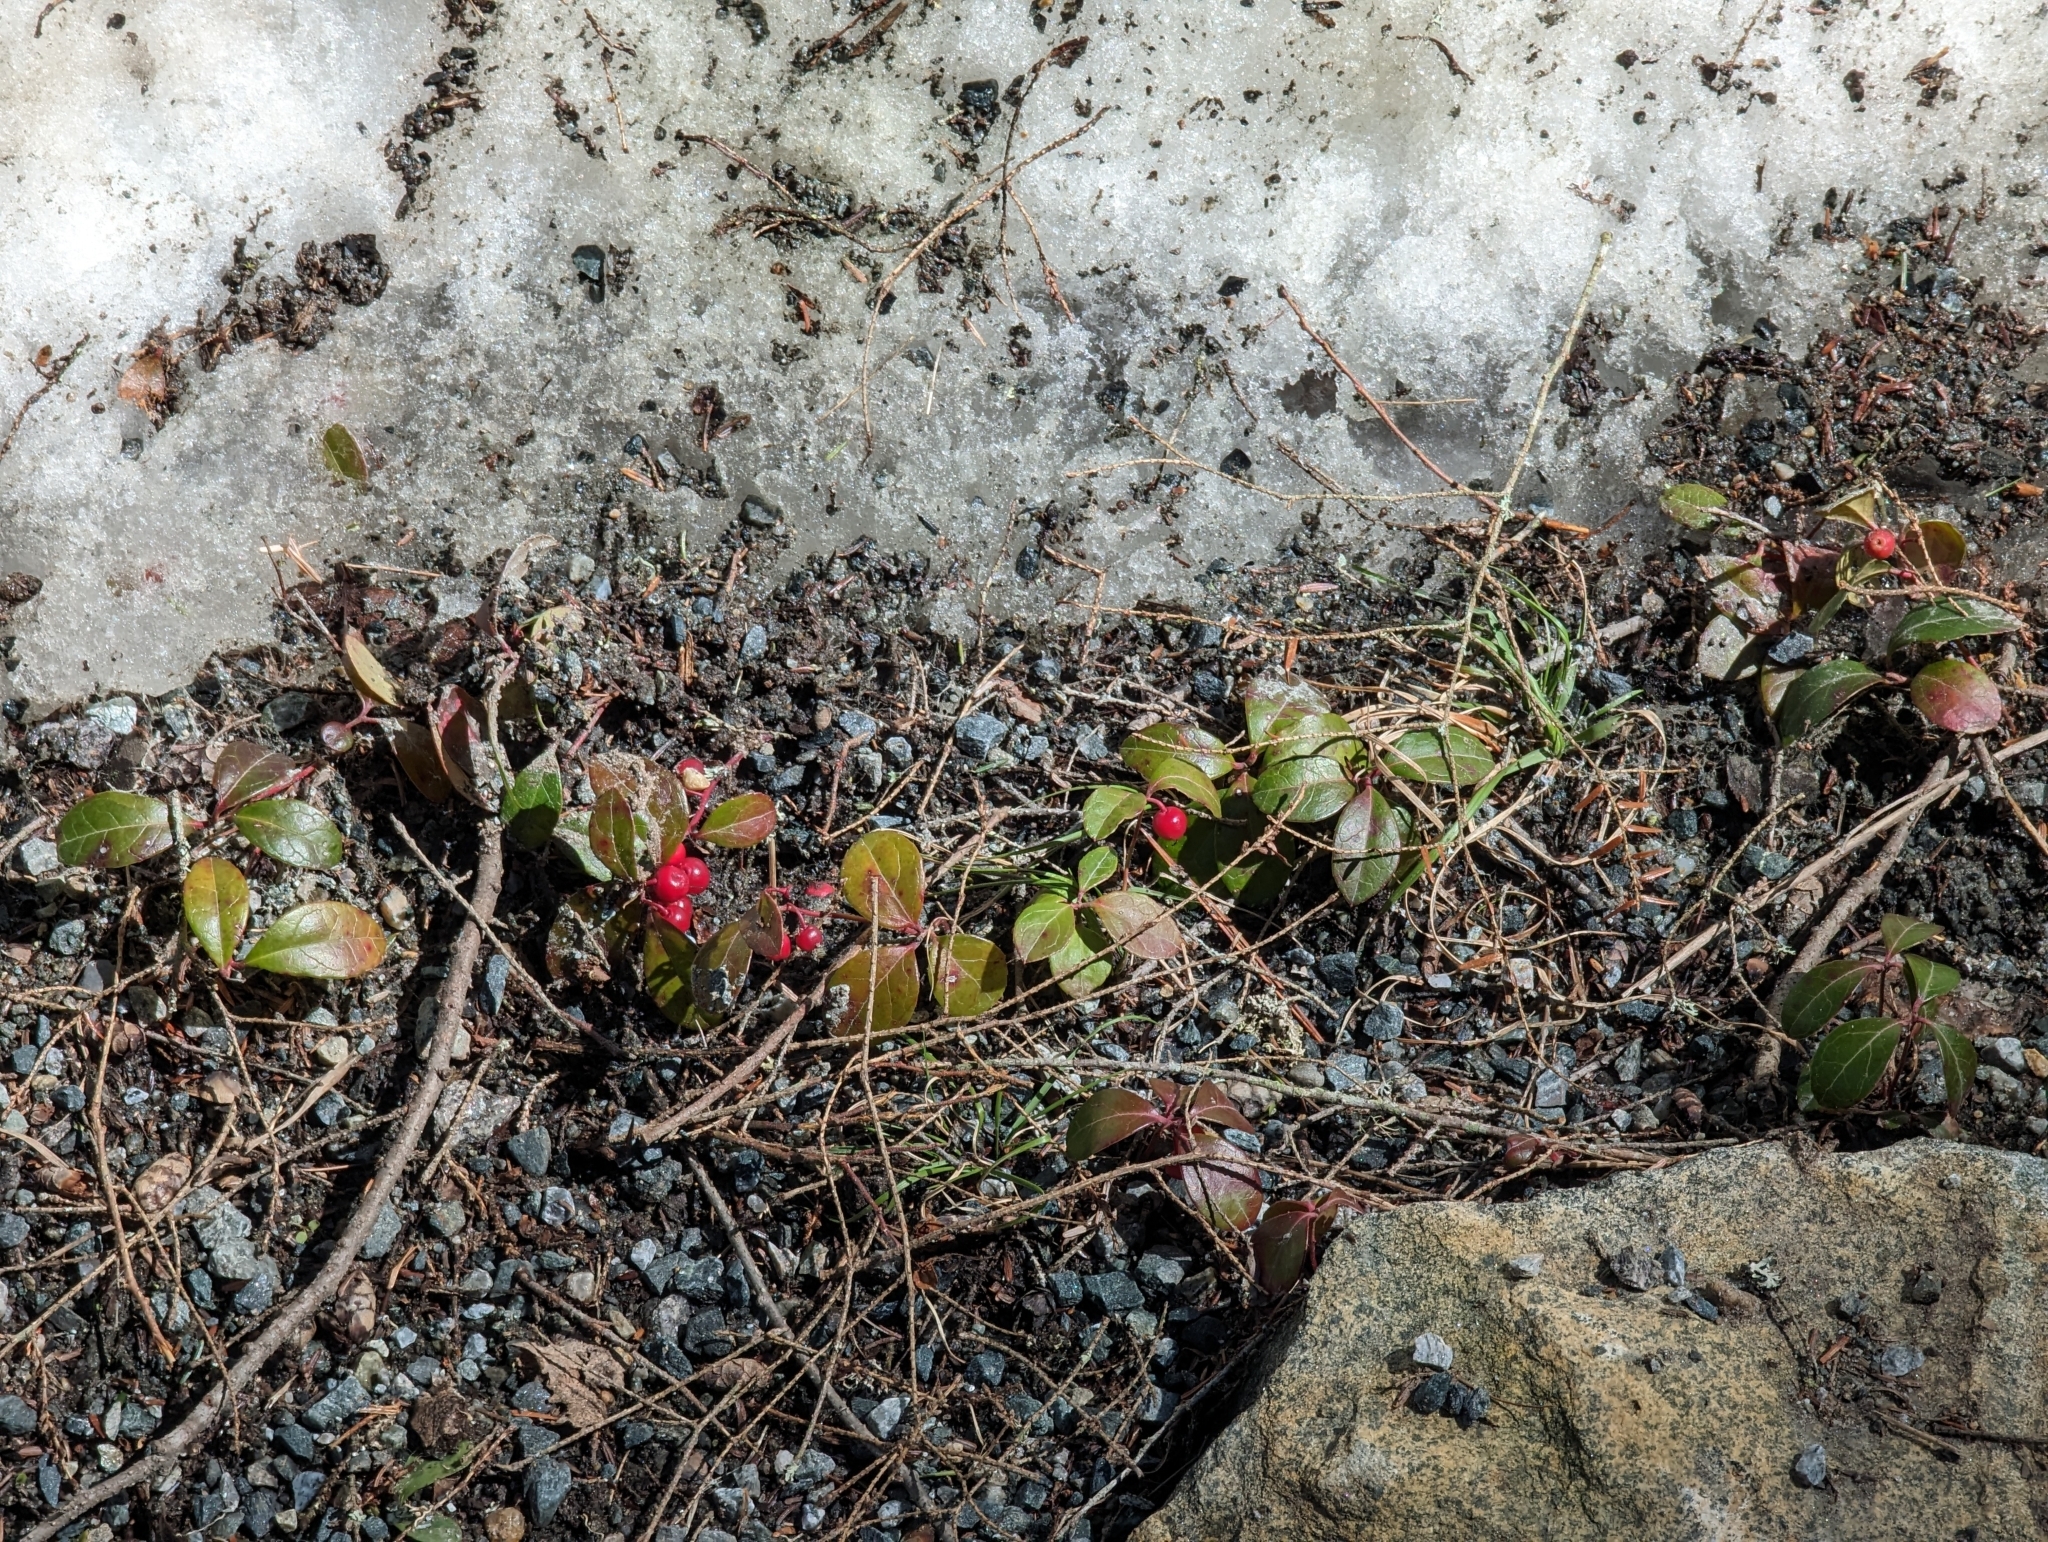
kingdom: Plantae
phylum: Tracheophyta
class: Magnoliopsida
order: Ericales
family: Ericaceae
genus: Gaultheria
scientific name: Gaultheria procumbens
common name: Checkerberry
